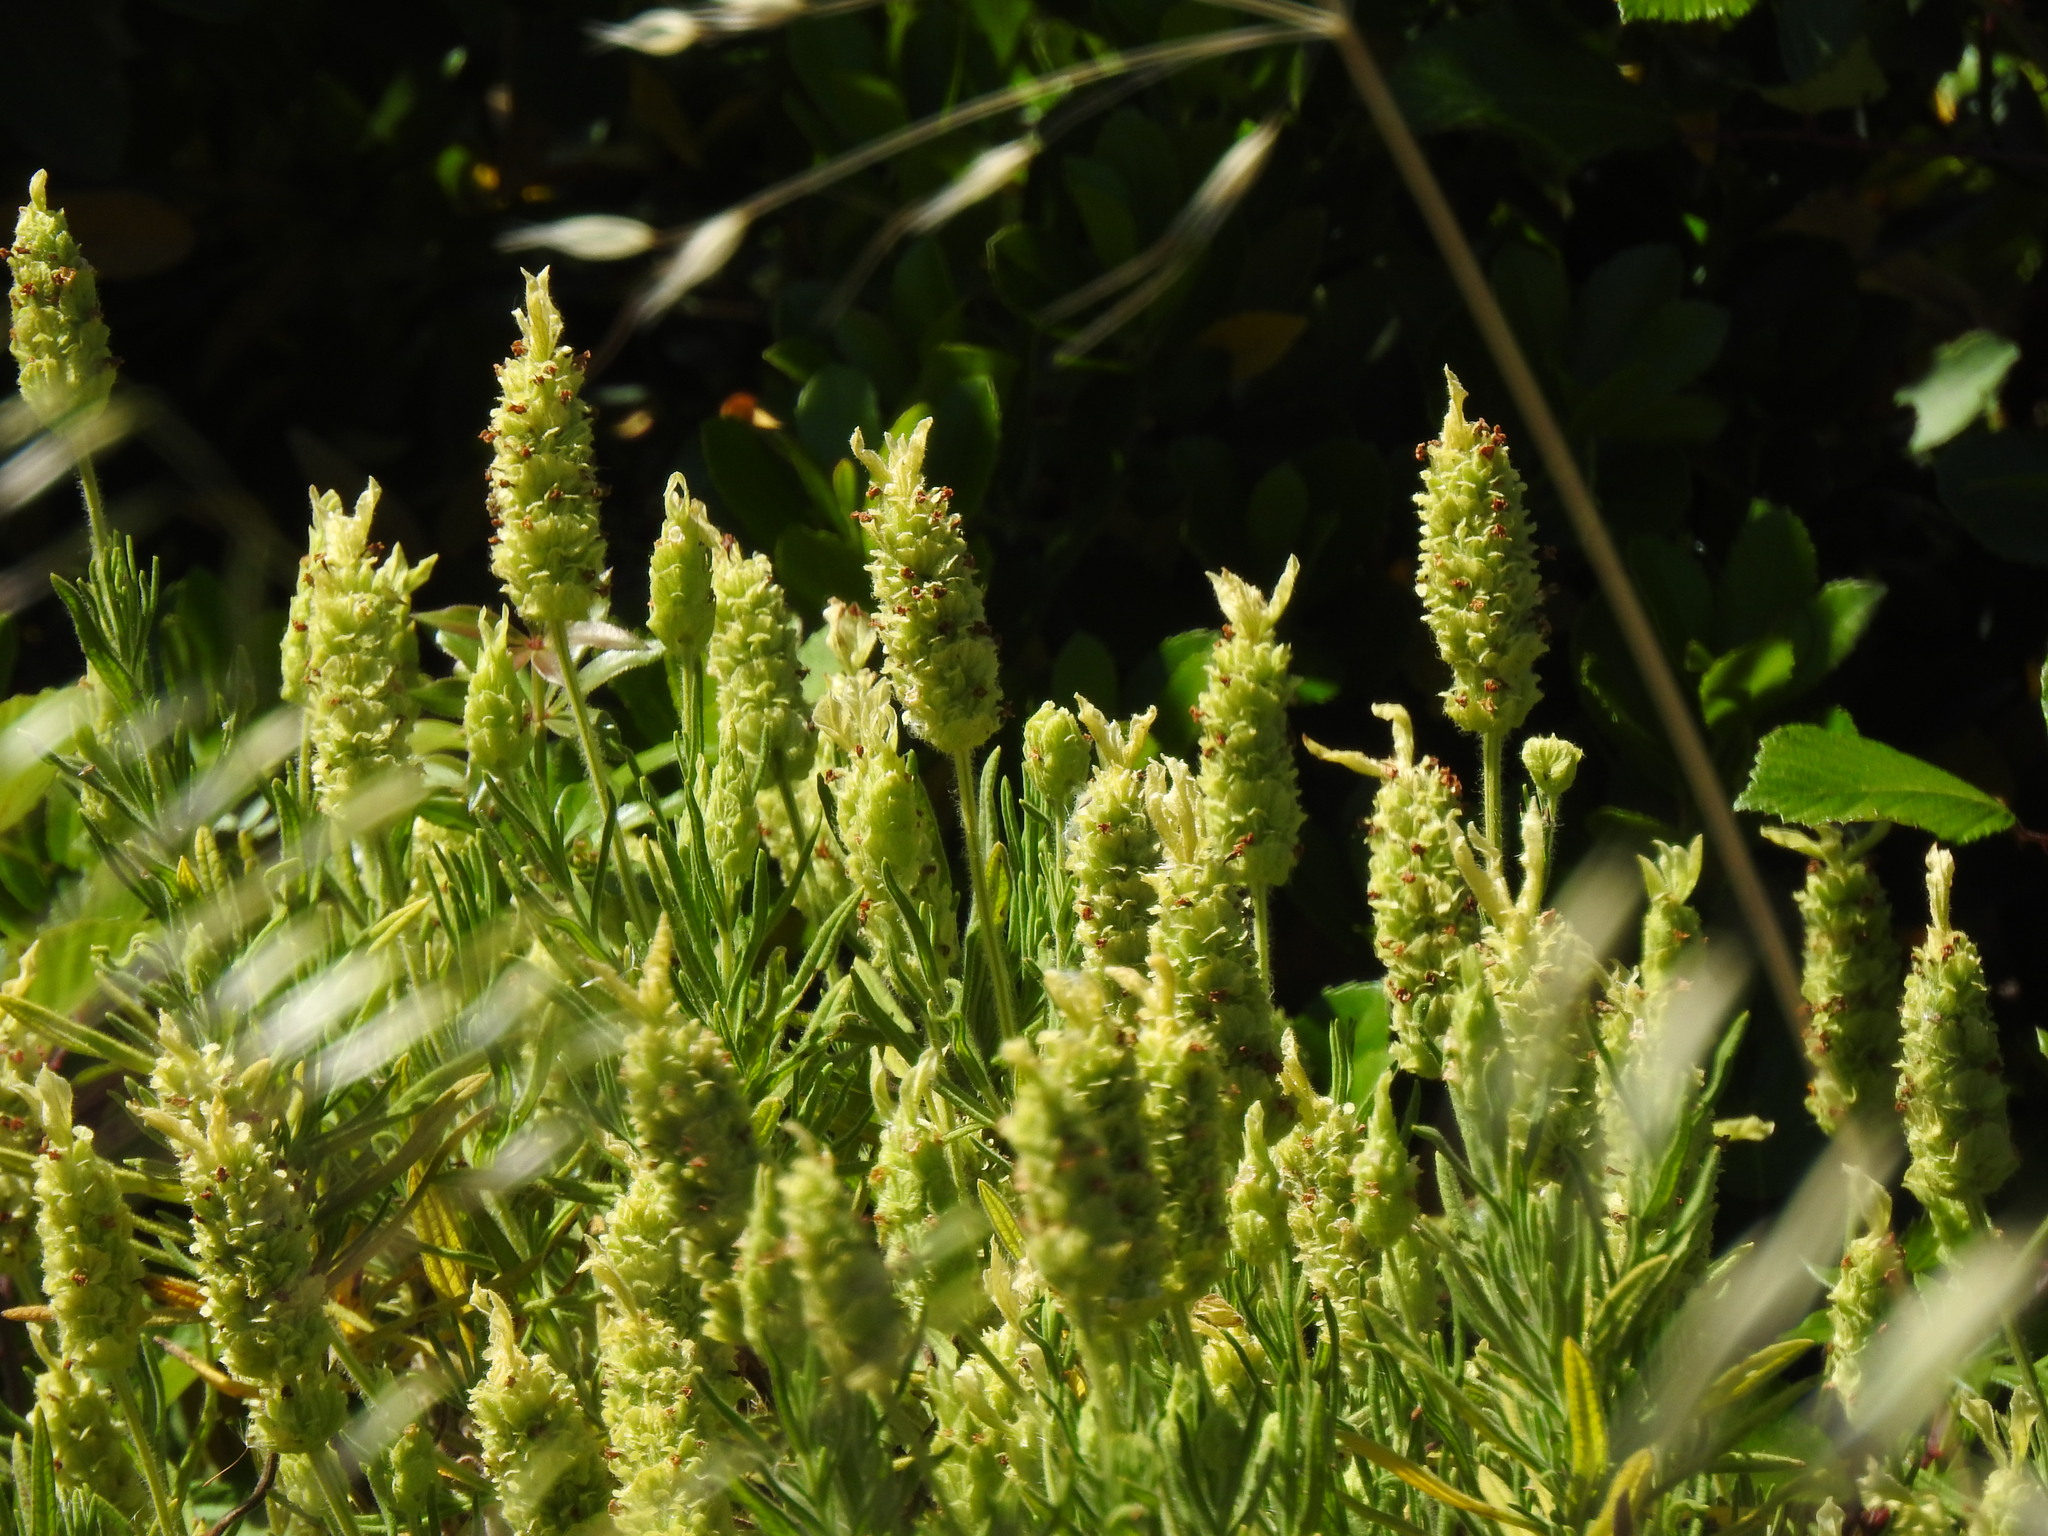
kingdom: Plantae
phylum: Tracheophyta
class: Magnoliopsida
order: Lamiales
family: Lamiaceae
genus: Lavandula
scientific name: Lavandula viridis
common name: Green spanish lavender
